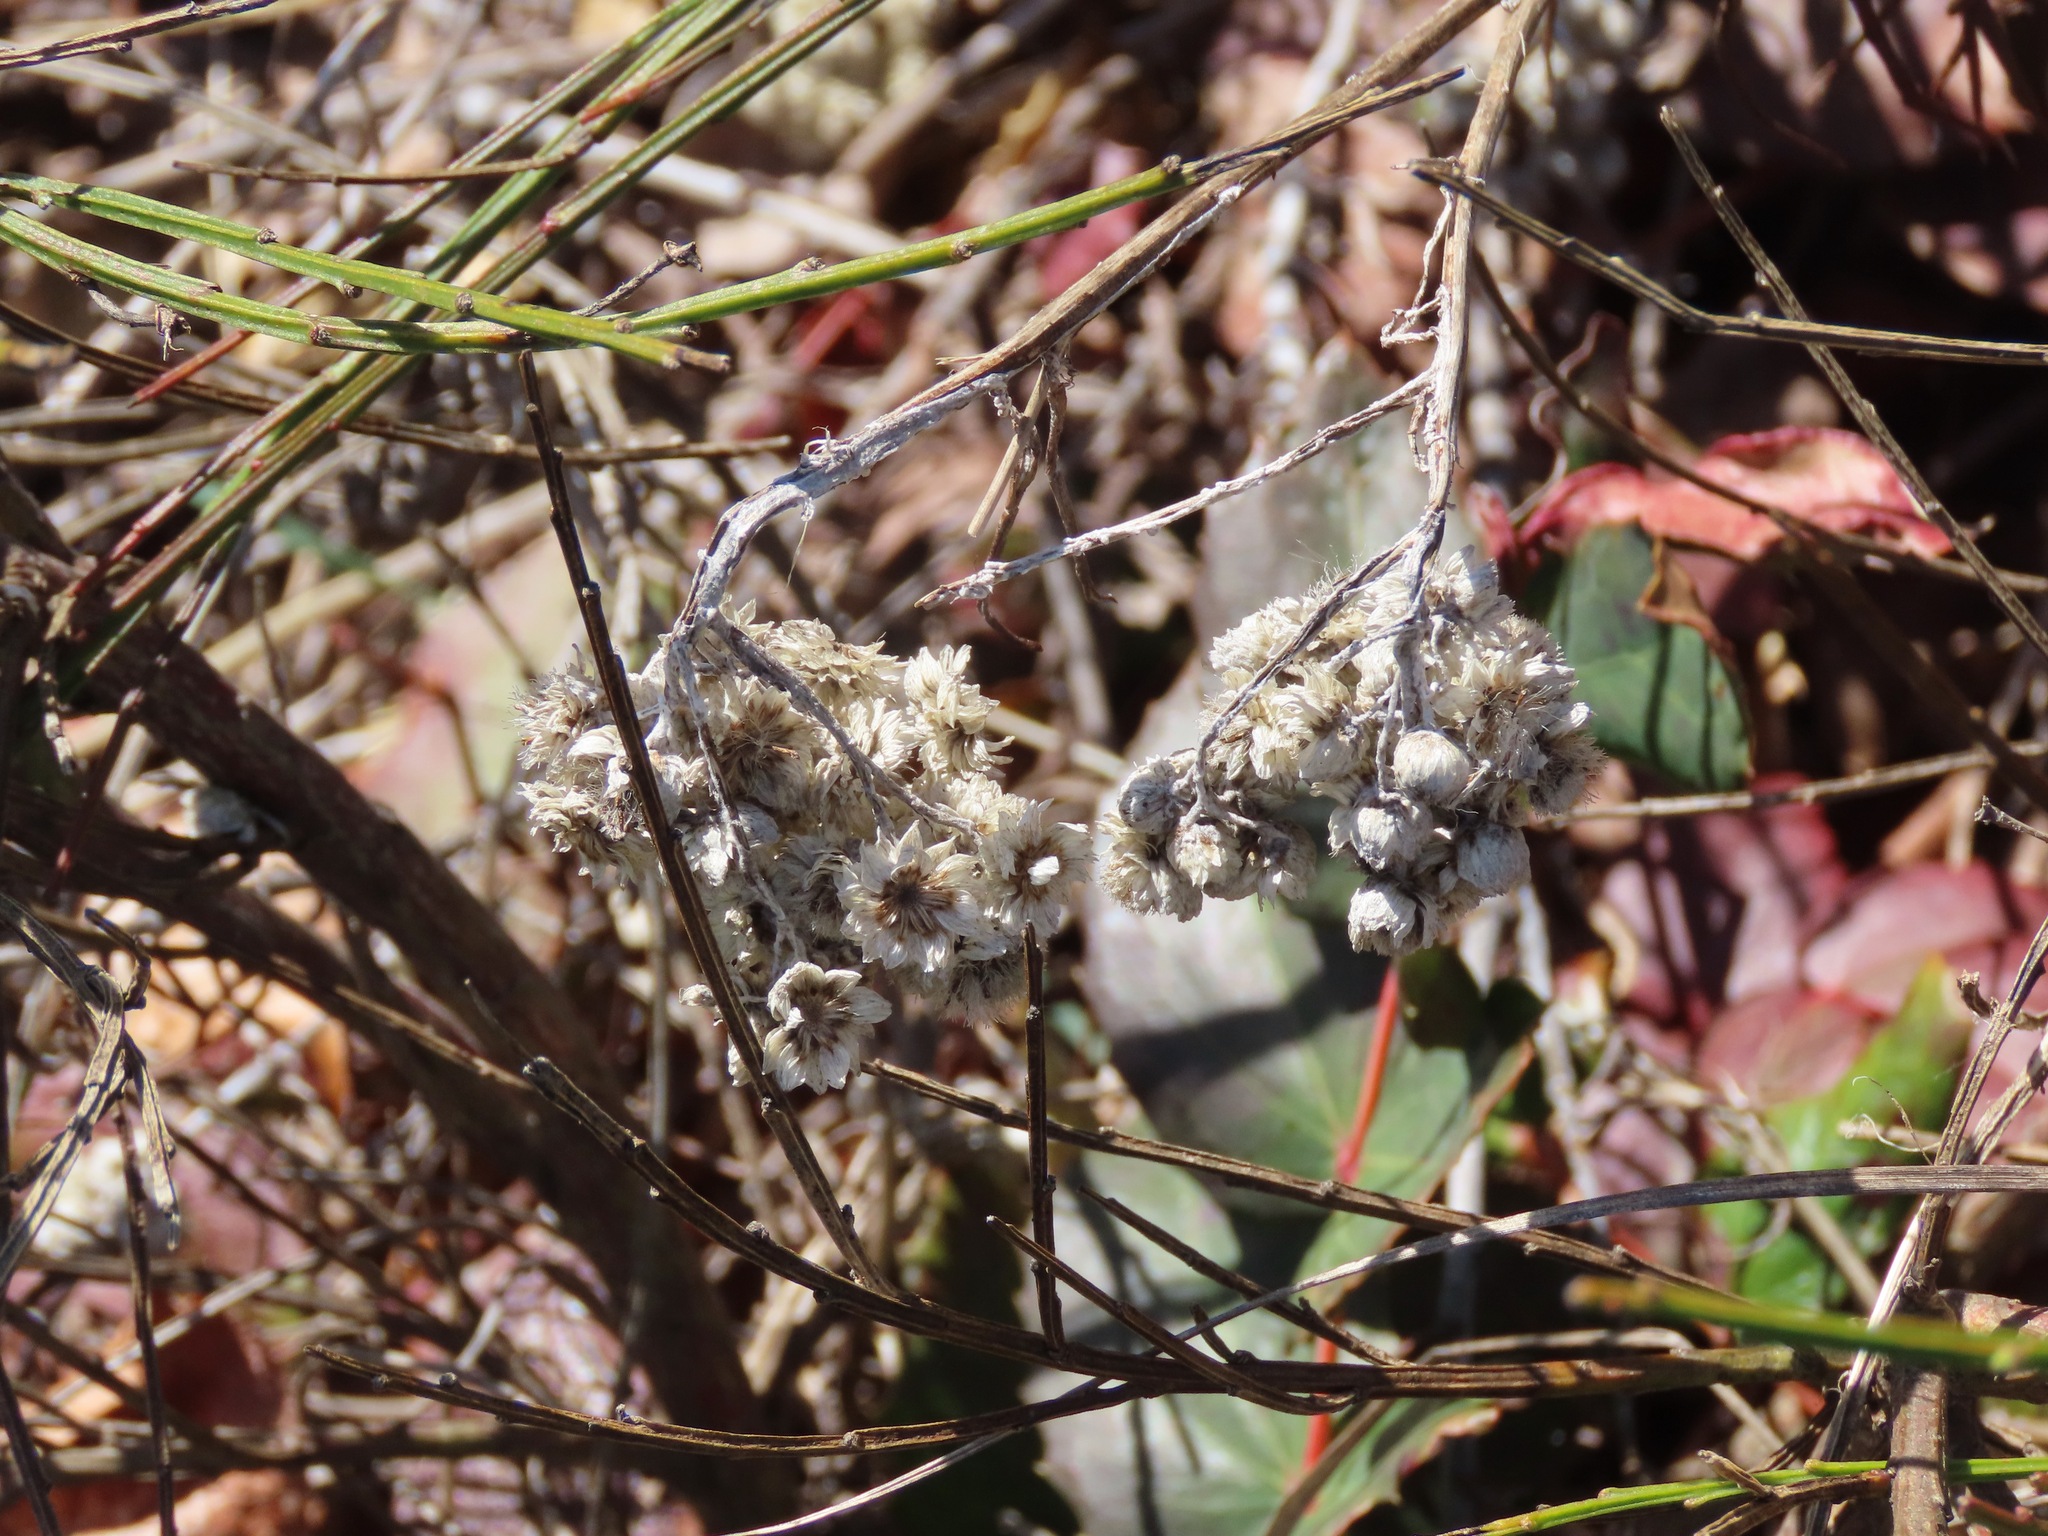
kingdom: Plantae
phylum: Tracheophyta
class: Magnoliopsida
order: Asterales
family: Asteraceae
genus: Anaphalis
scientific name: Anaphalis margaritacea
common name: Pearly everlasting
